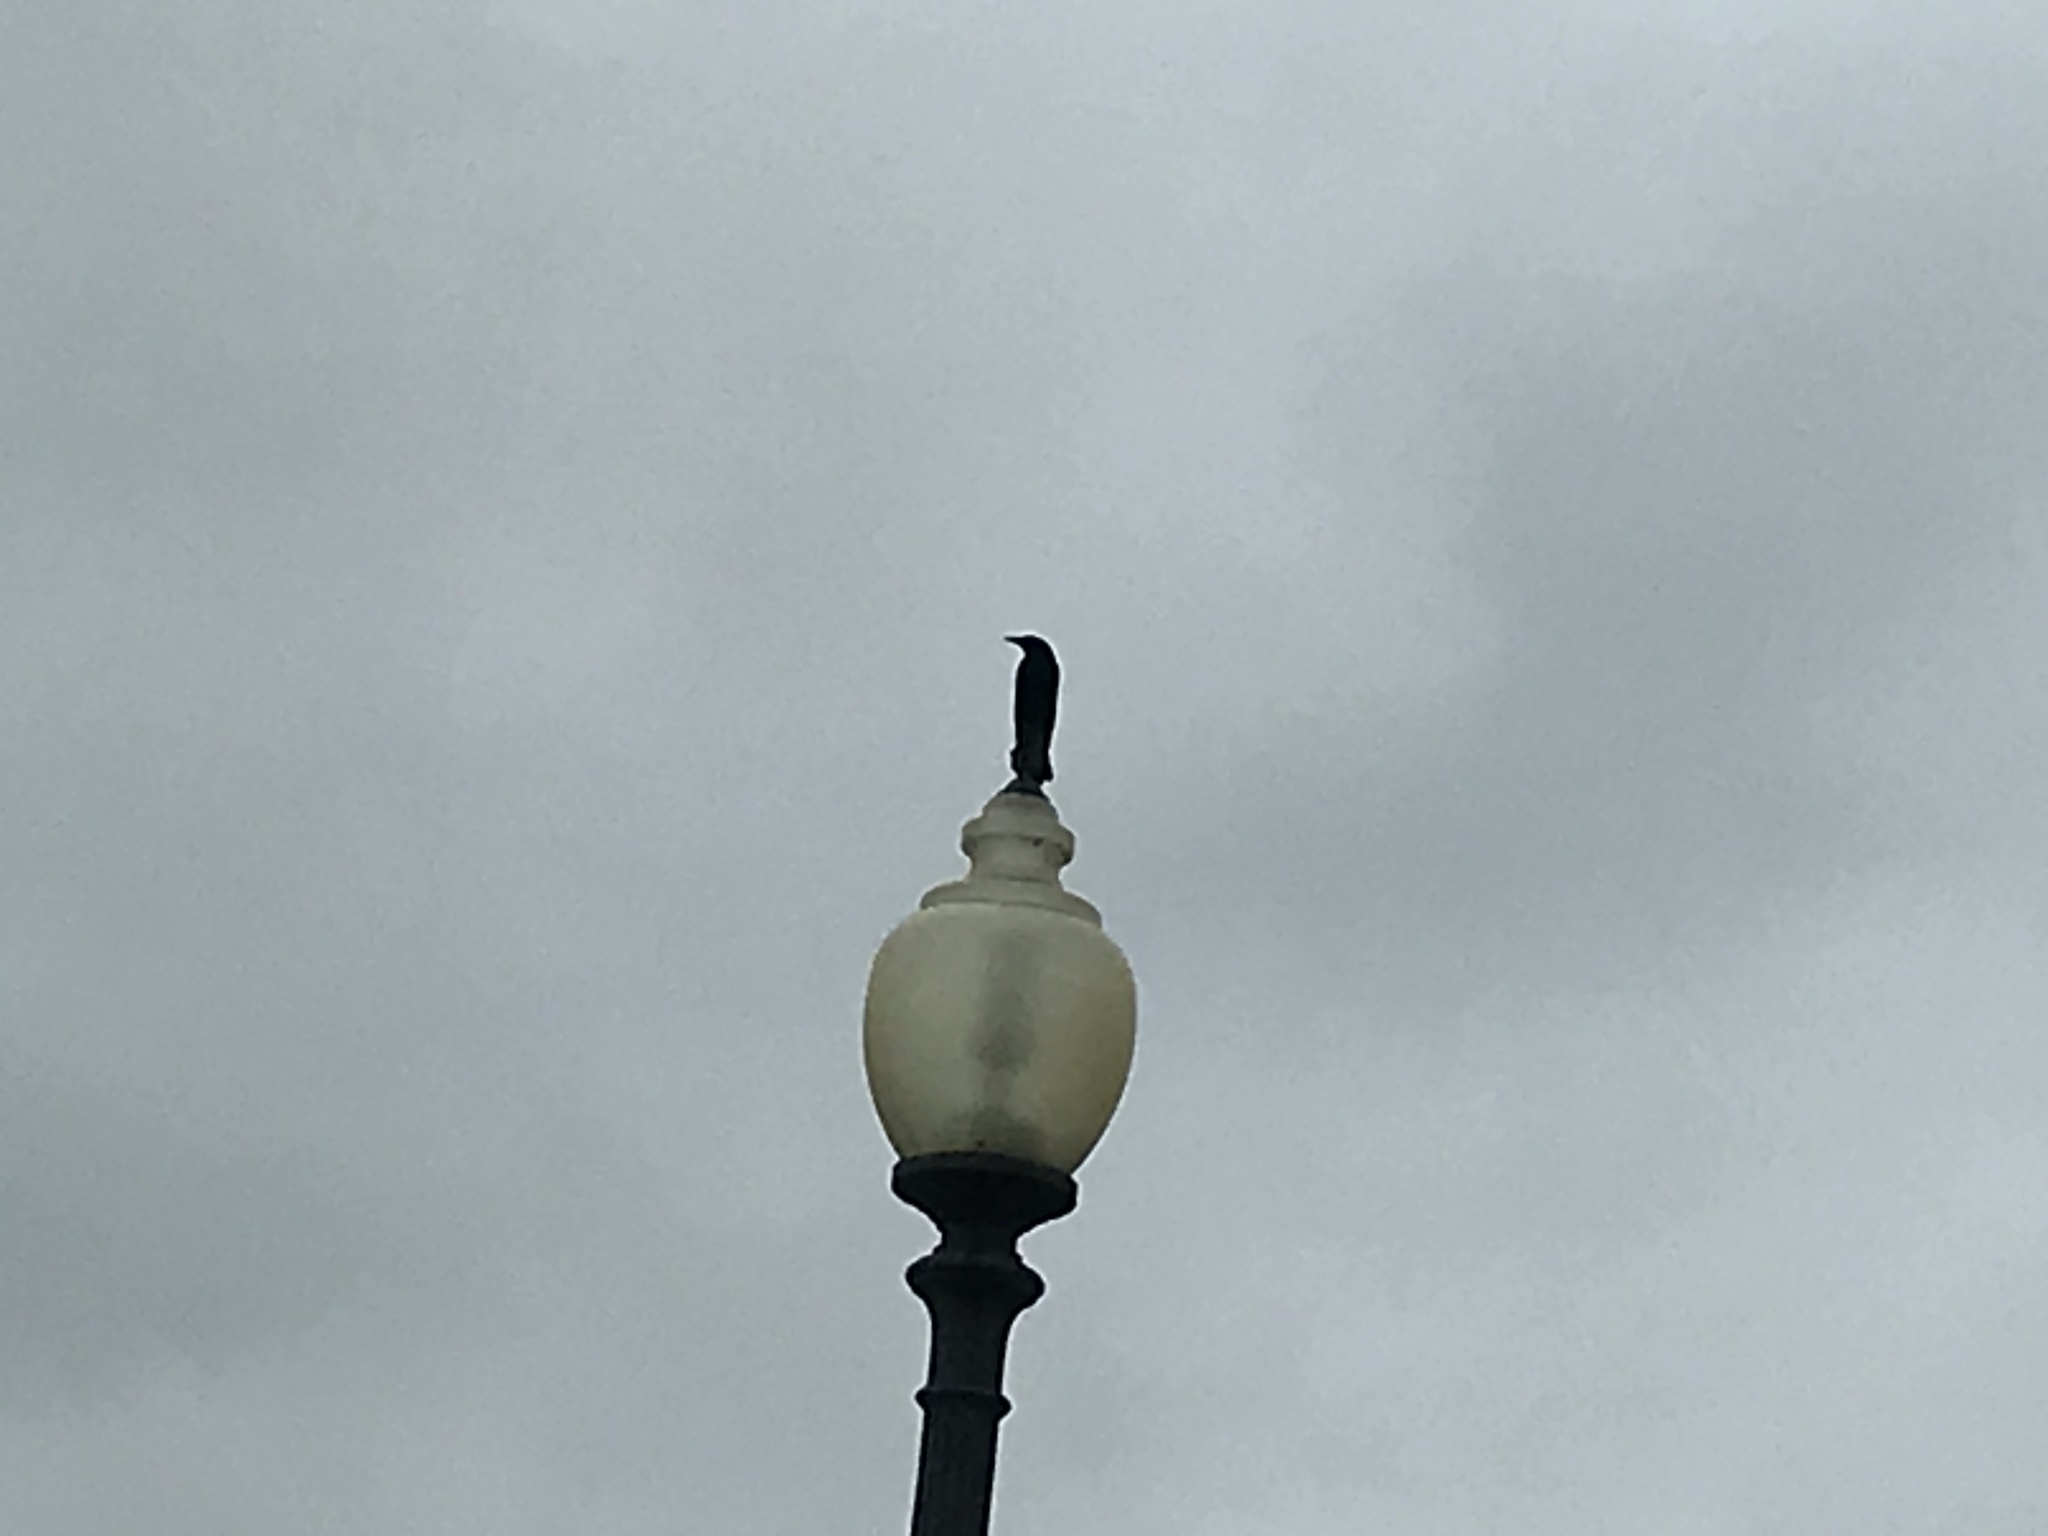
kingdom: Animalia
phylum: Chordata
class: Aves
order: Passeriformes
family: Corvidae
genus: Corvus
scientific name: Corvus
